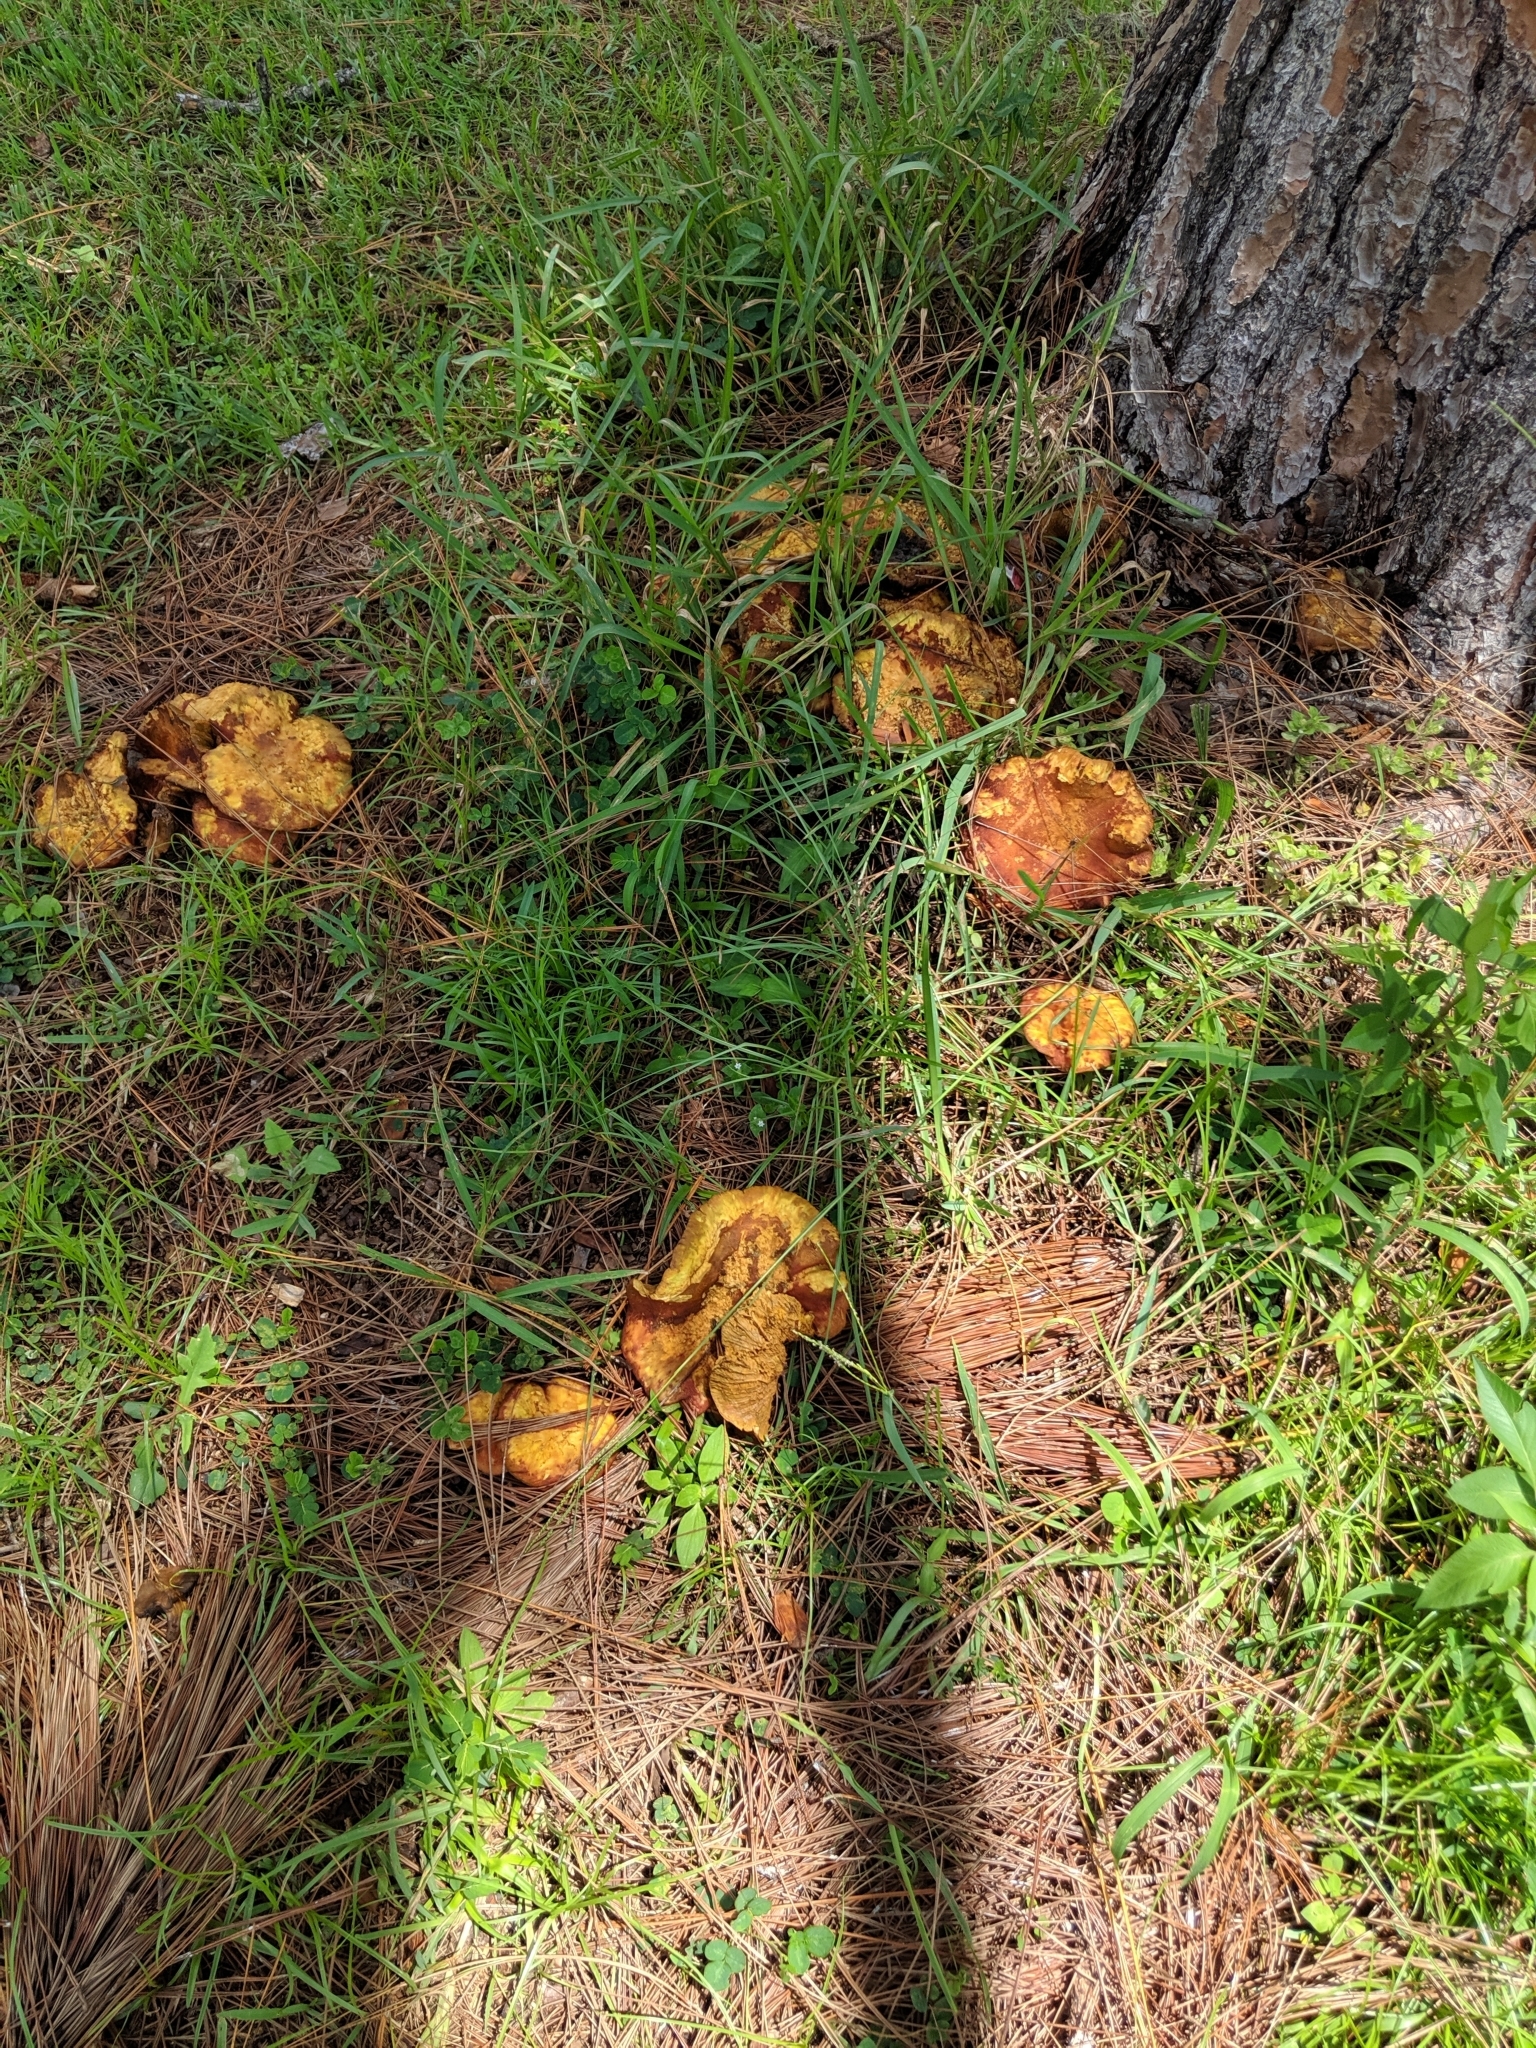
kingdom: Fungi
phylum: Basidiomycota
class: Agaricomycetes
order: Agaricales
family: Omphalotaceae
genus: Omphalotus
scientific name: Omphalotus illudens
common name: Jack o lantern
